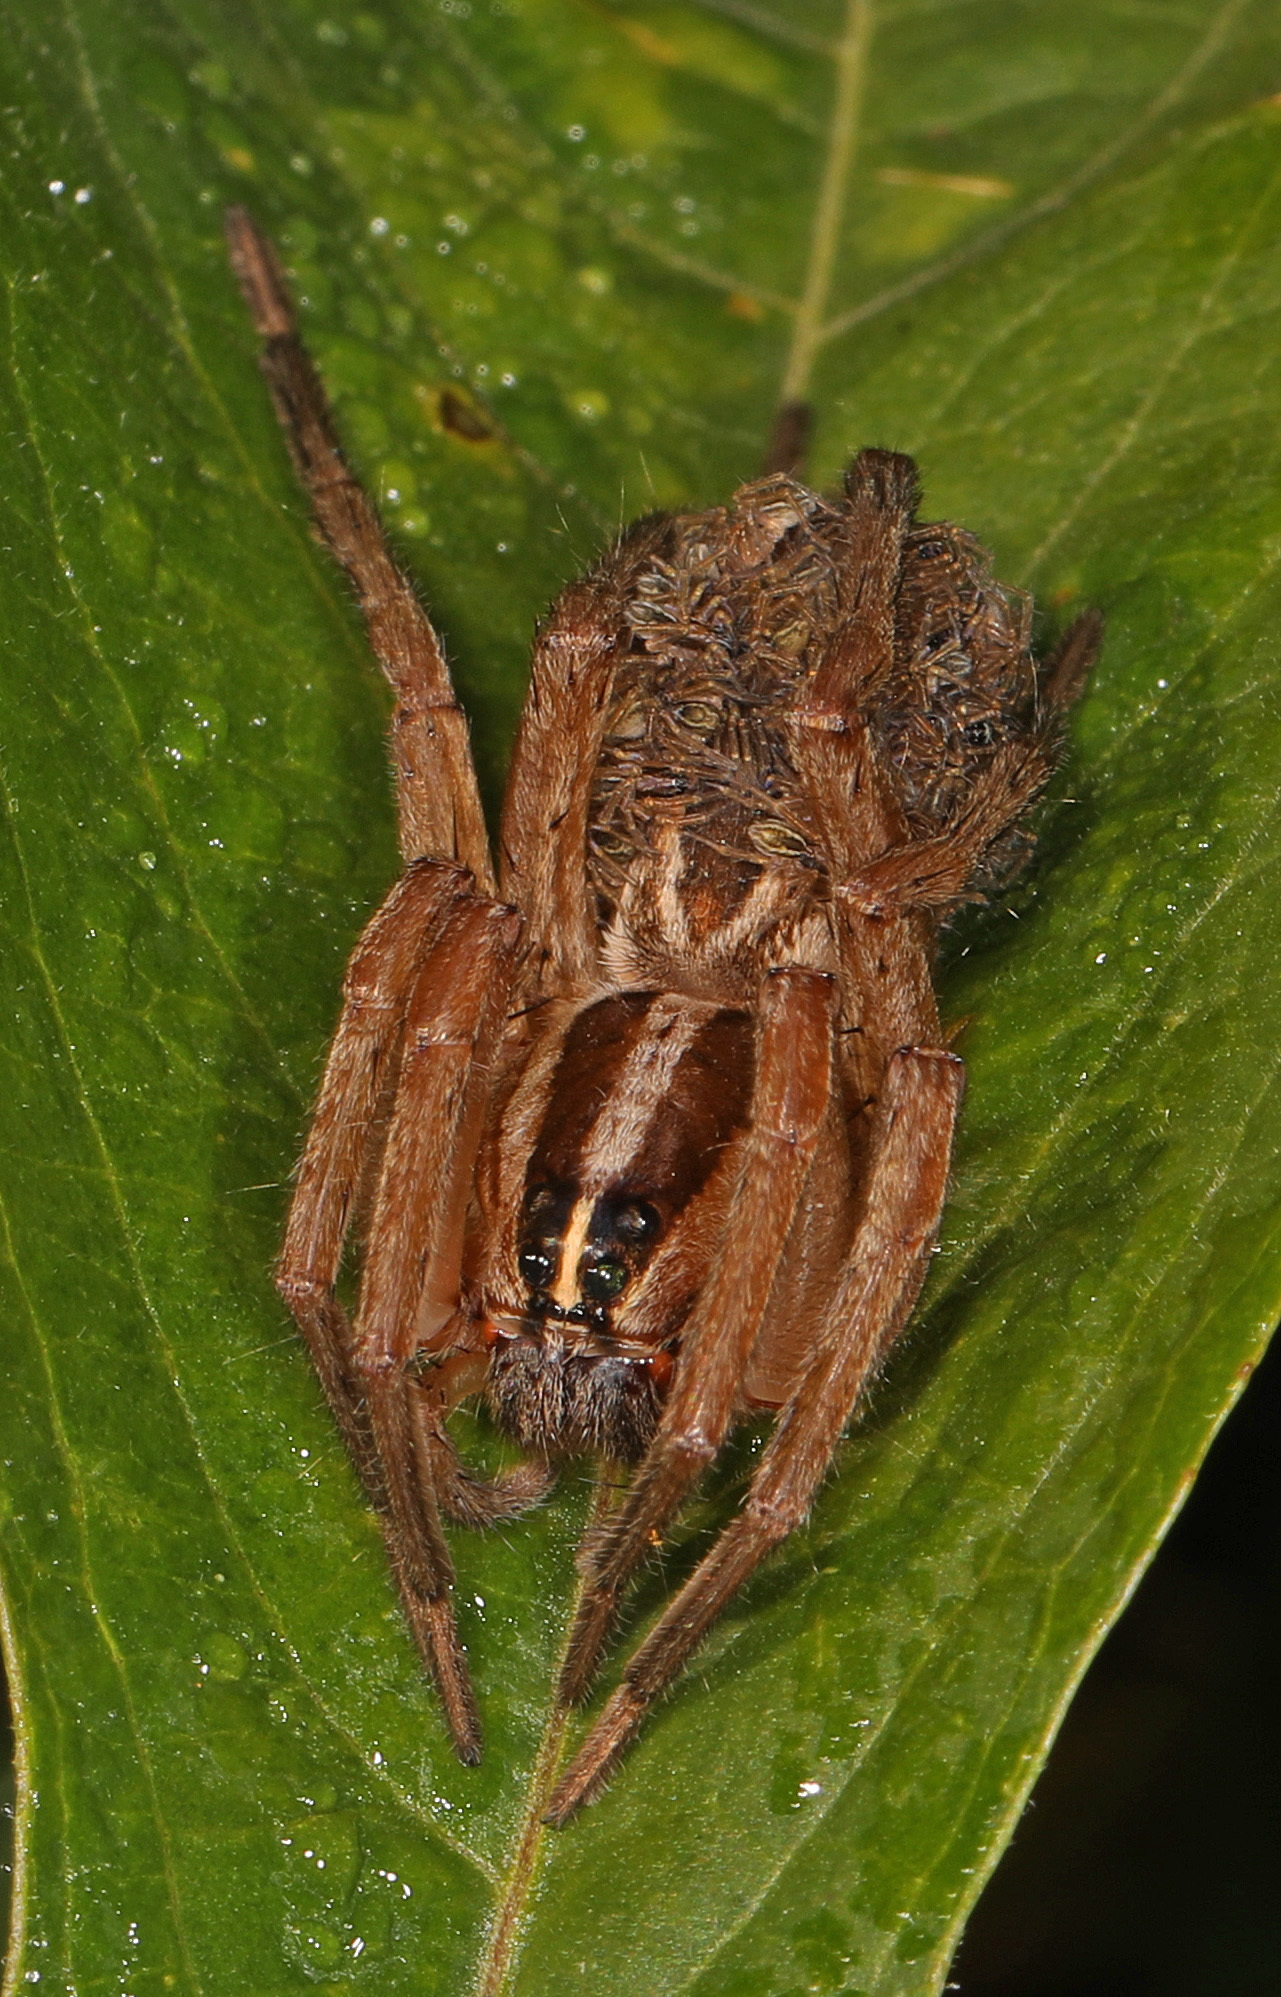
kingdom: Animalia
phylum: Arthropoda
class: Arachnida
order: Araneae
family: Lycosidae
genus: Rabidosa
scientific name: Rabidosa
